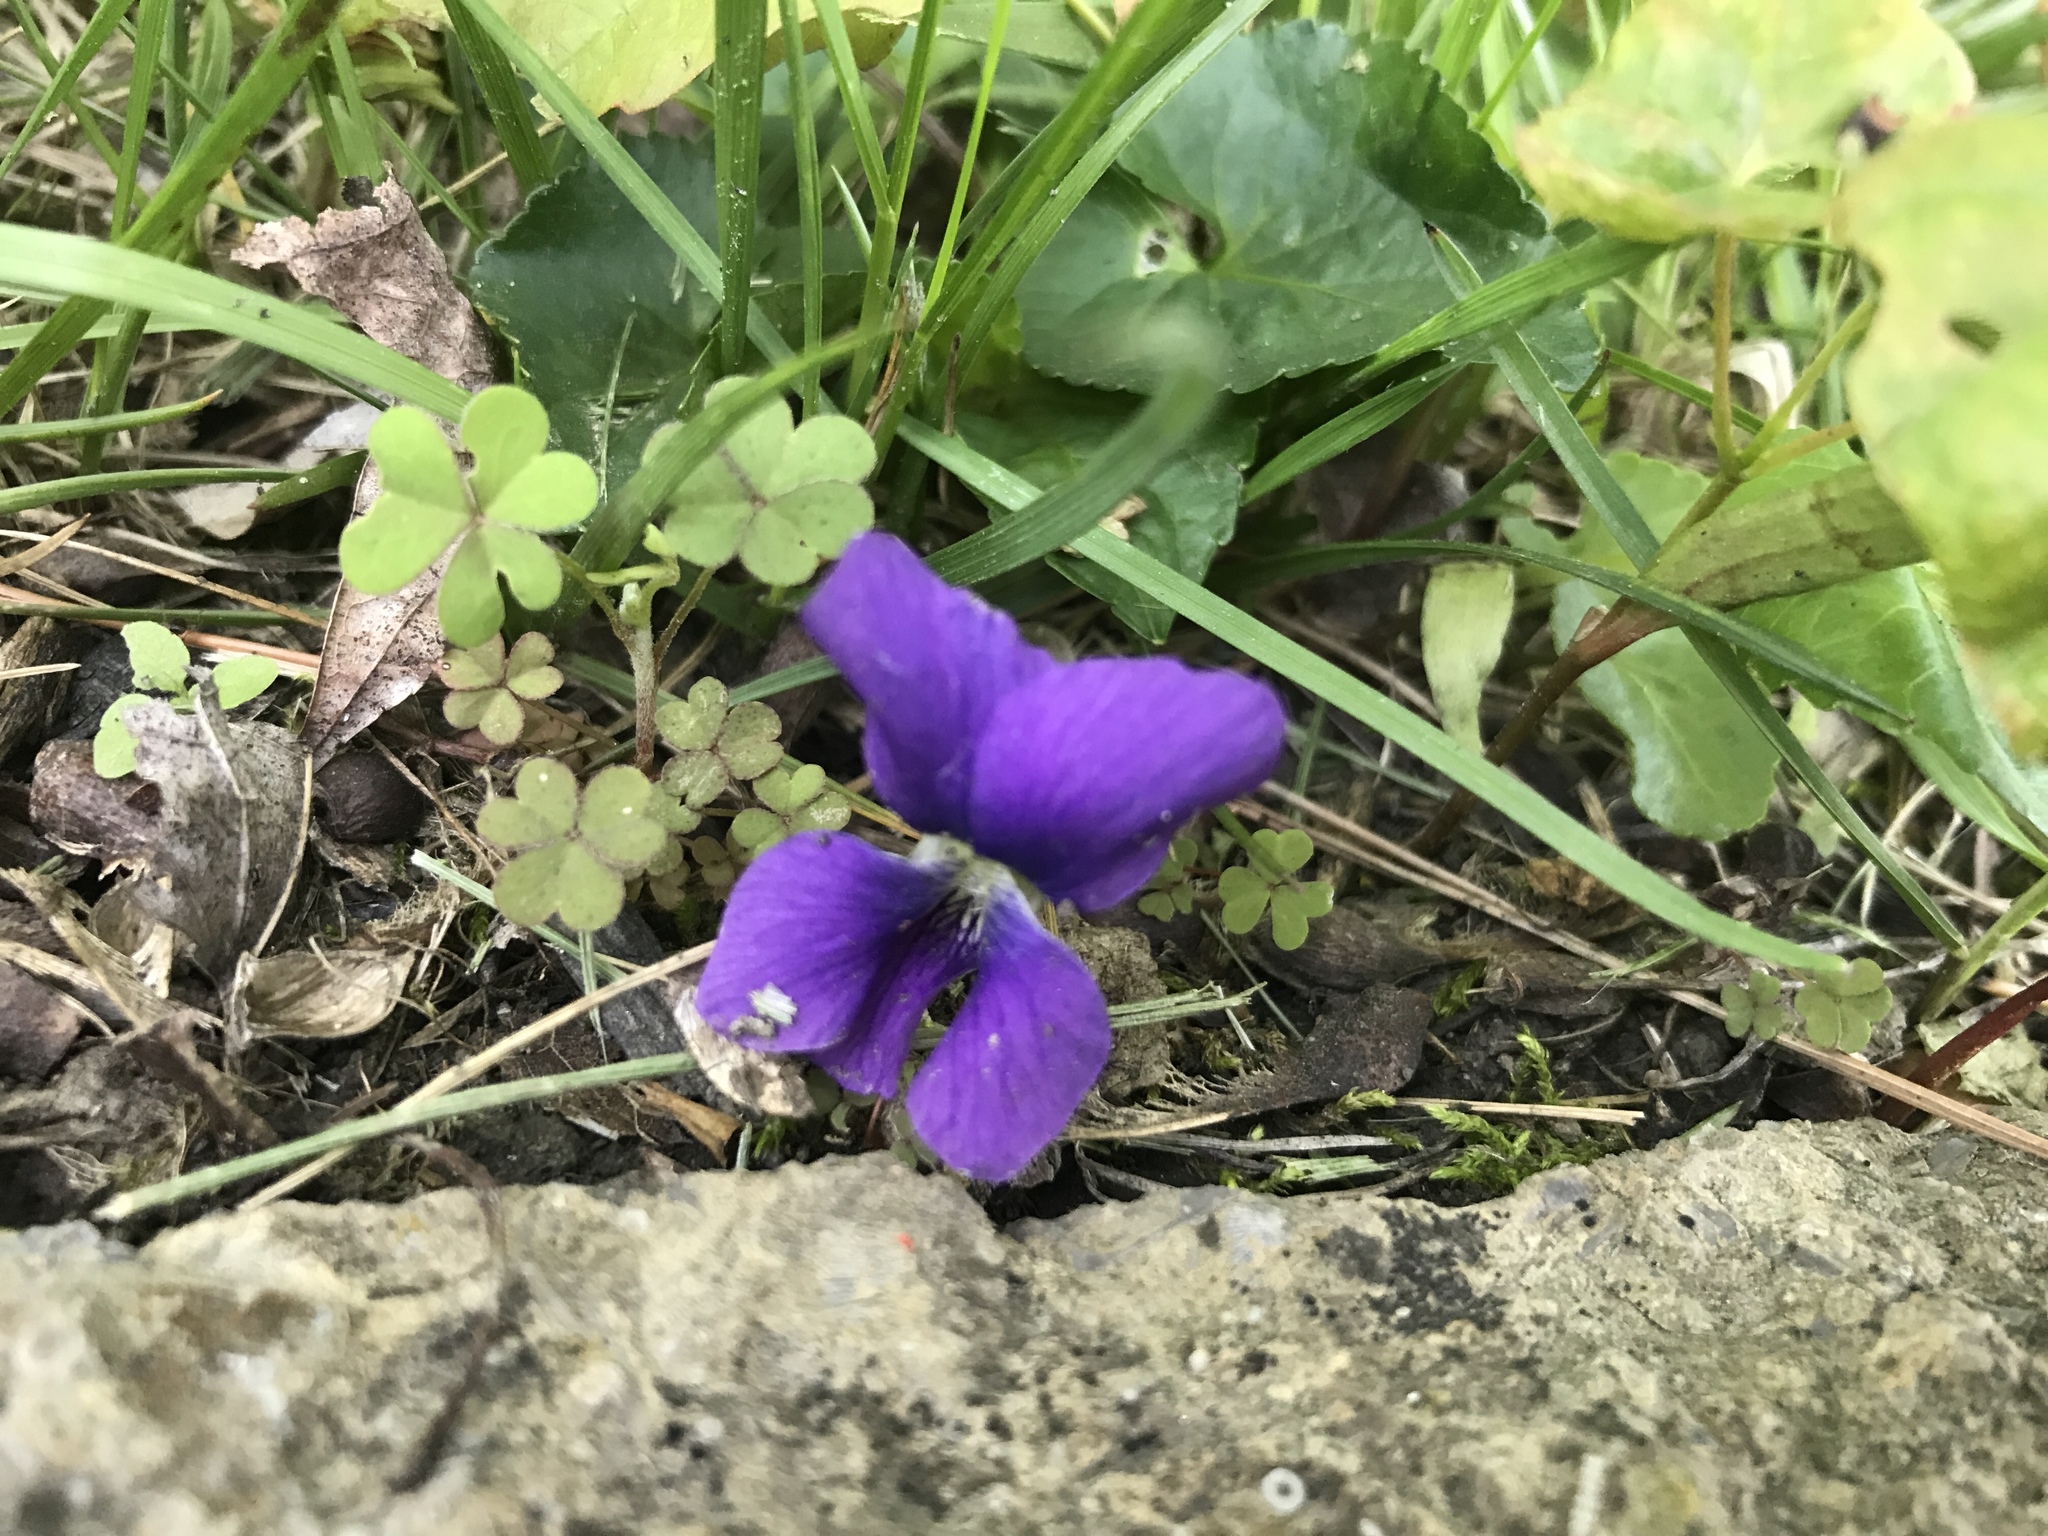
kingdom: Plantae
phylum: Tracheophyta
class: Magnoliopsida
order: Malpighiales
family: Violaceae
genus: Viola
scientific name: Viola sororia
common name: Dooryard violet
